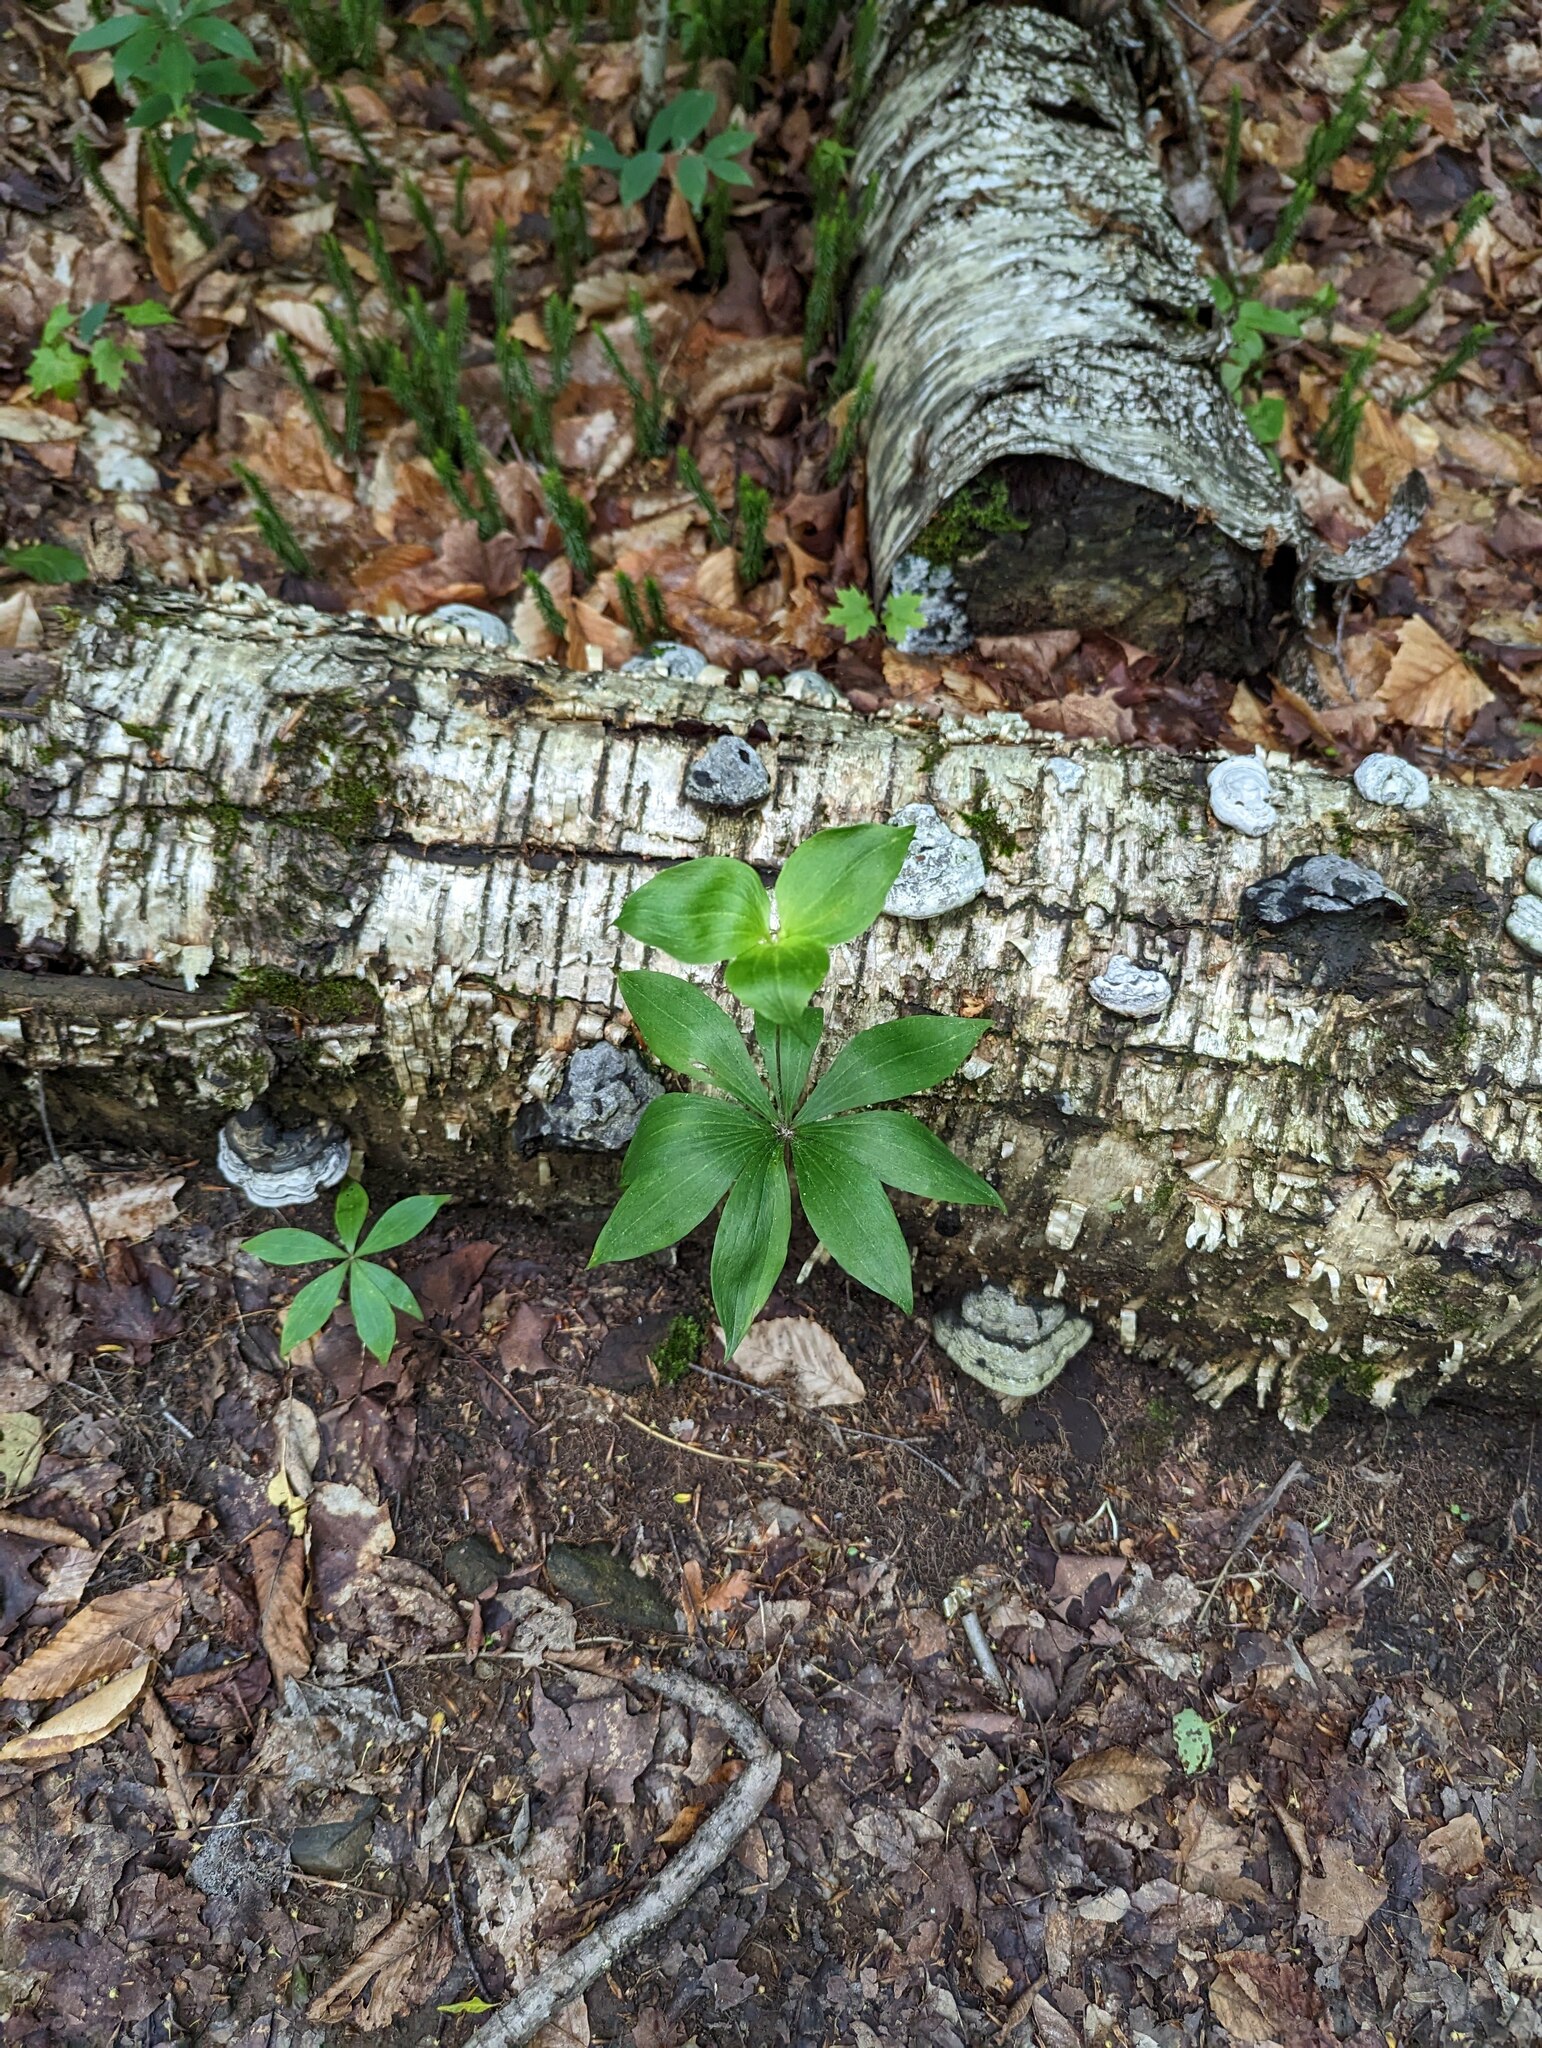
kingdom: Plantae
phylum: Tracheophyta
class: Liliopsida
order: Liliales
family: Liliaceae
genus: Medeola
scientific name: Medeola virginiana
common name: Indian cucumber-root
